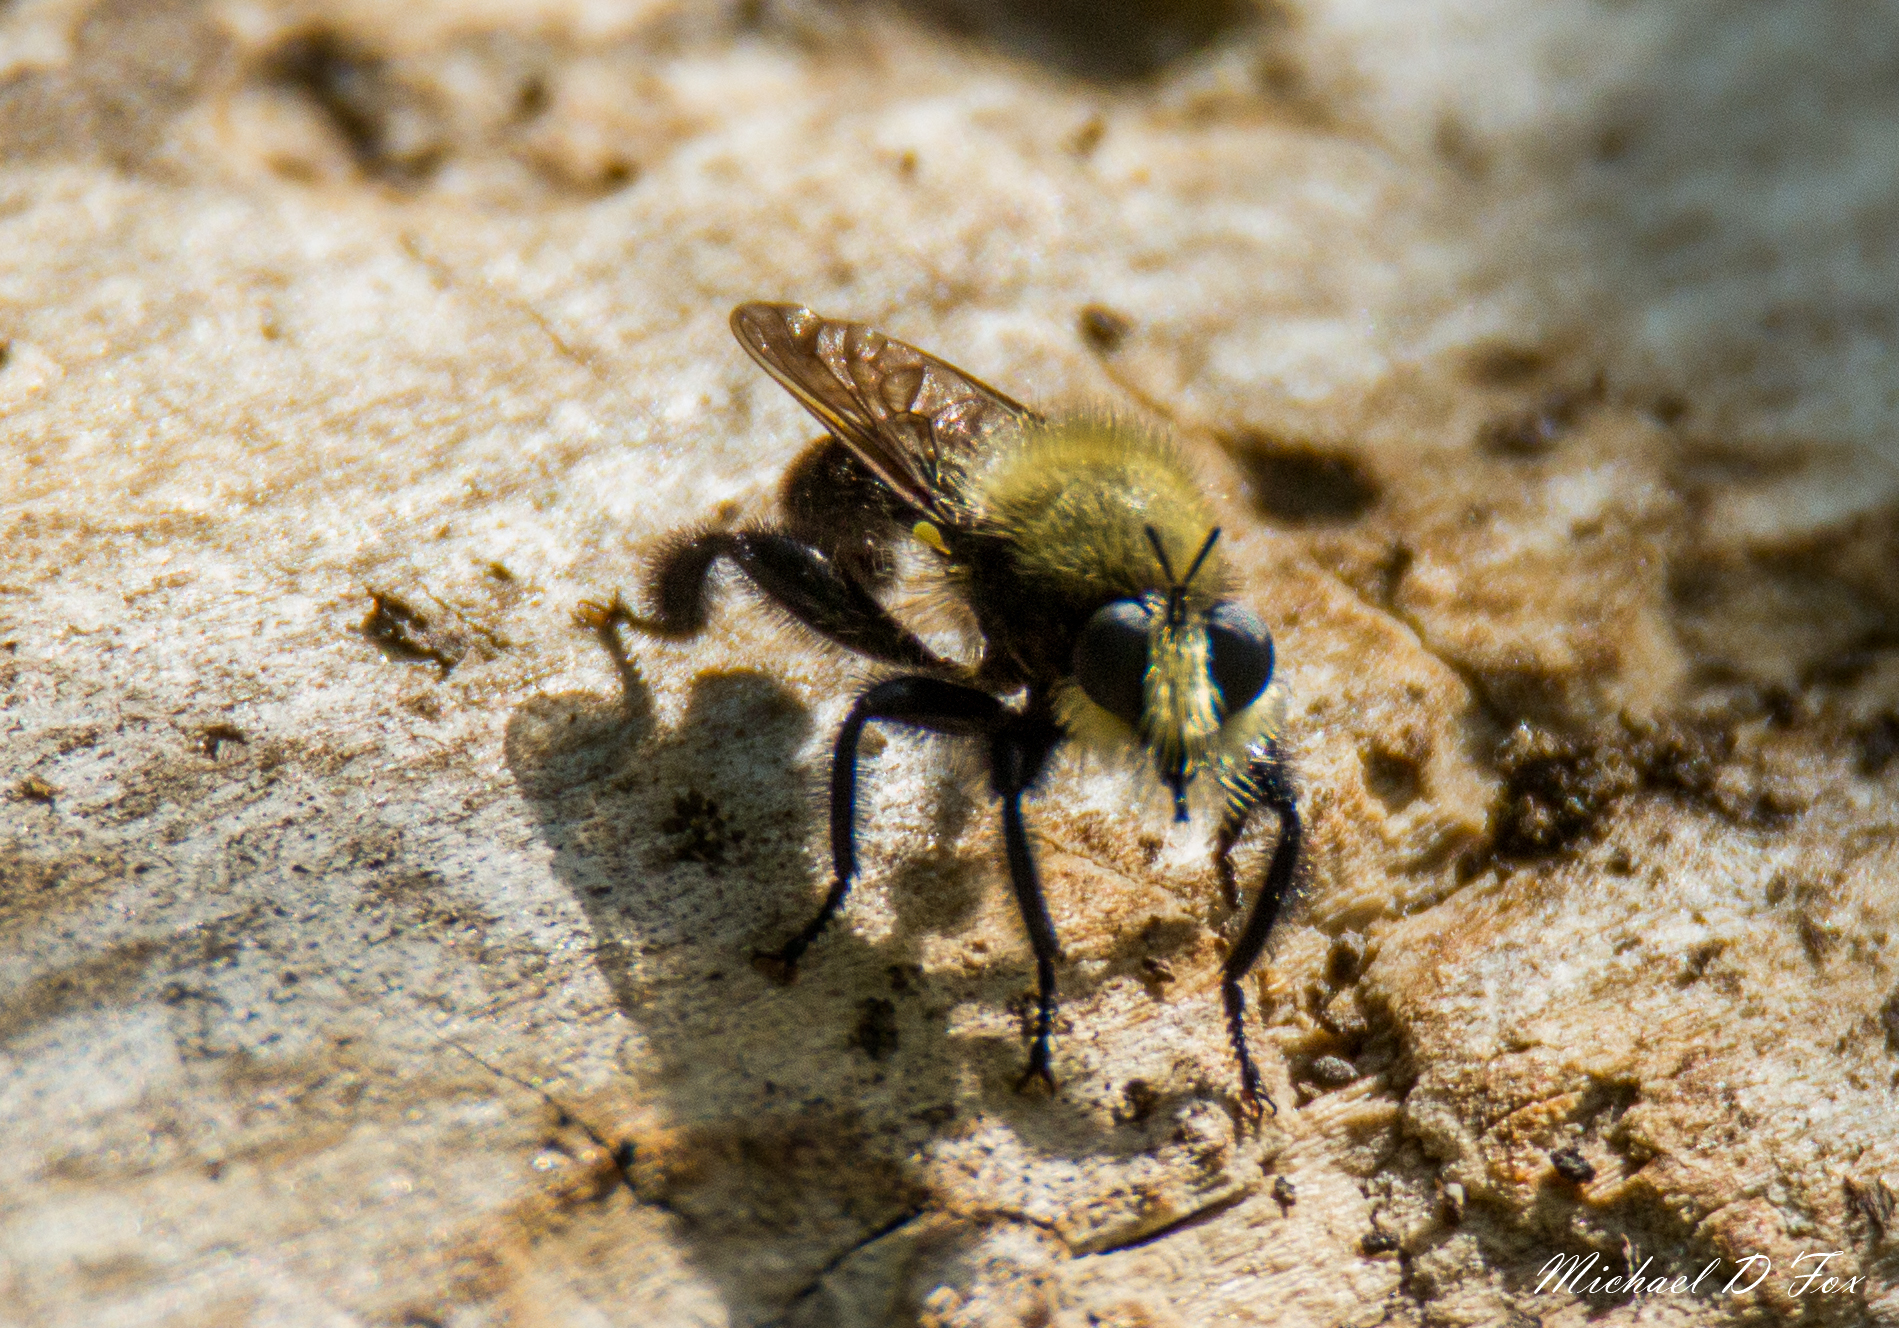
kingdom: Animalia
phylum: Arthropoda
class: Insecta
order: Diptera
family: Asilidae
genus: Laphria
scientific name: Laphria flavicollis
